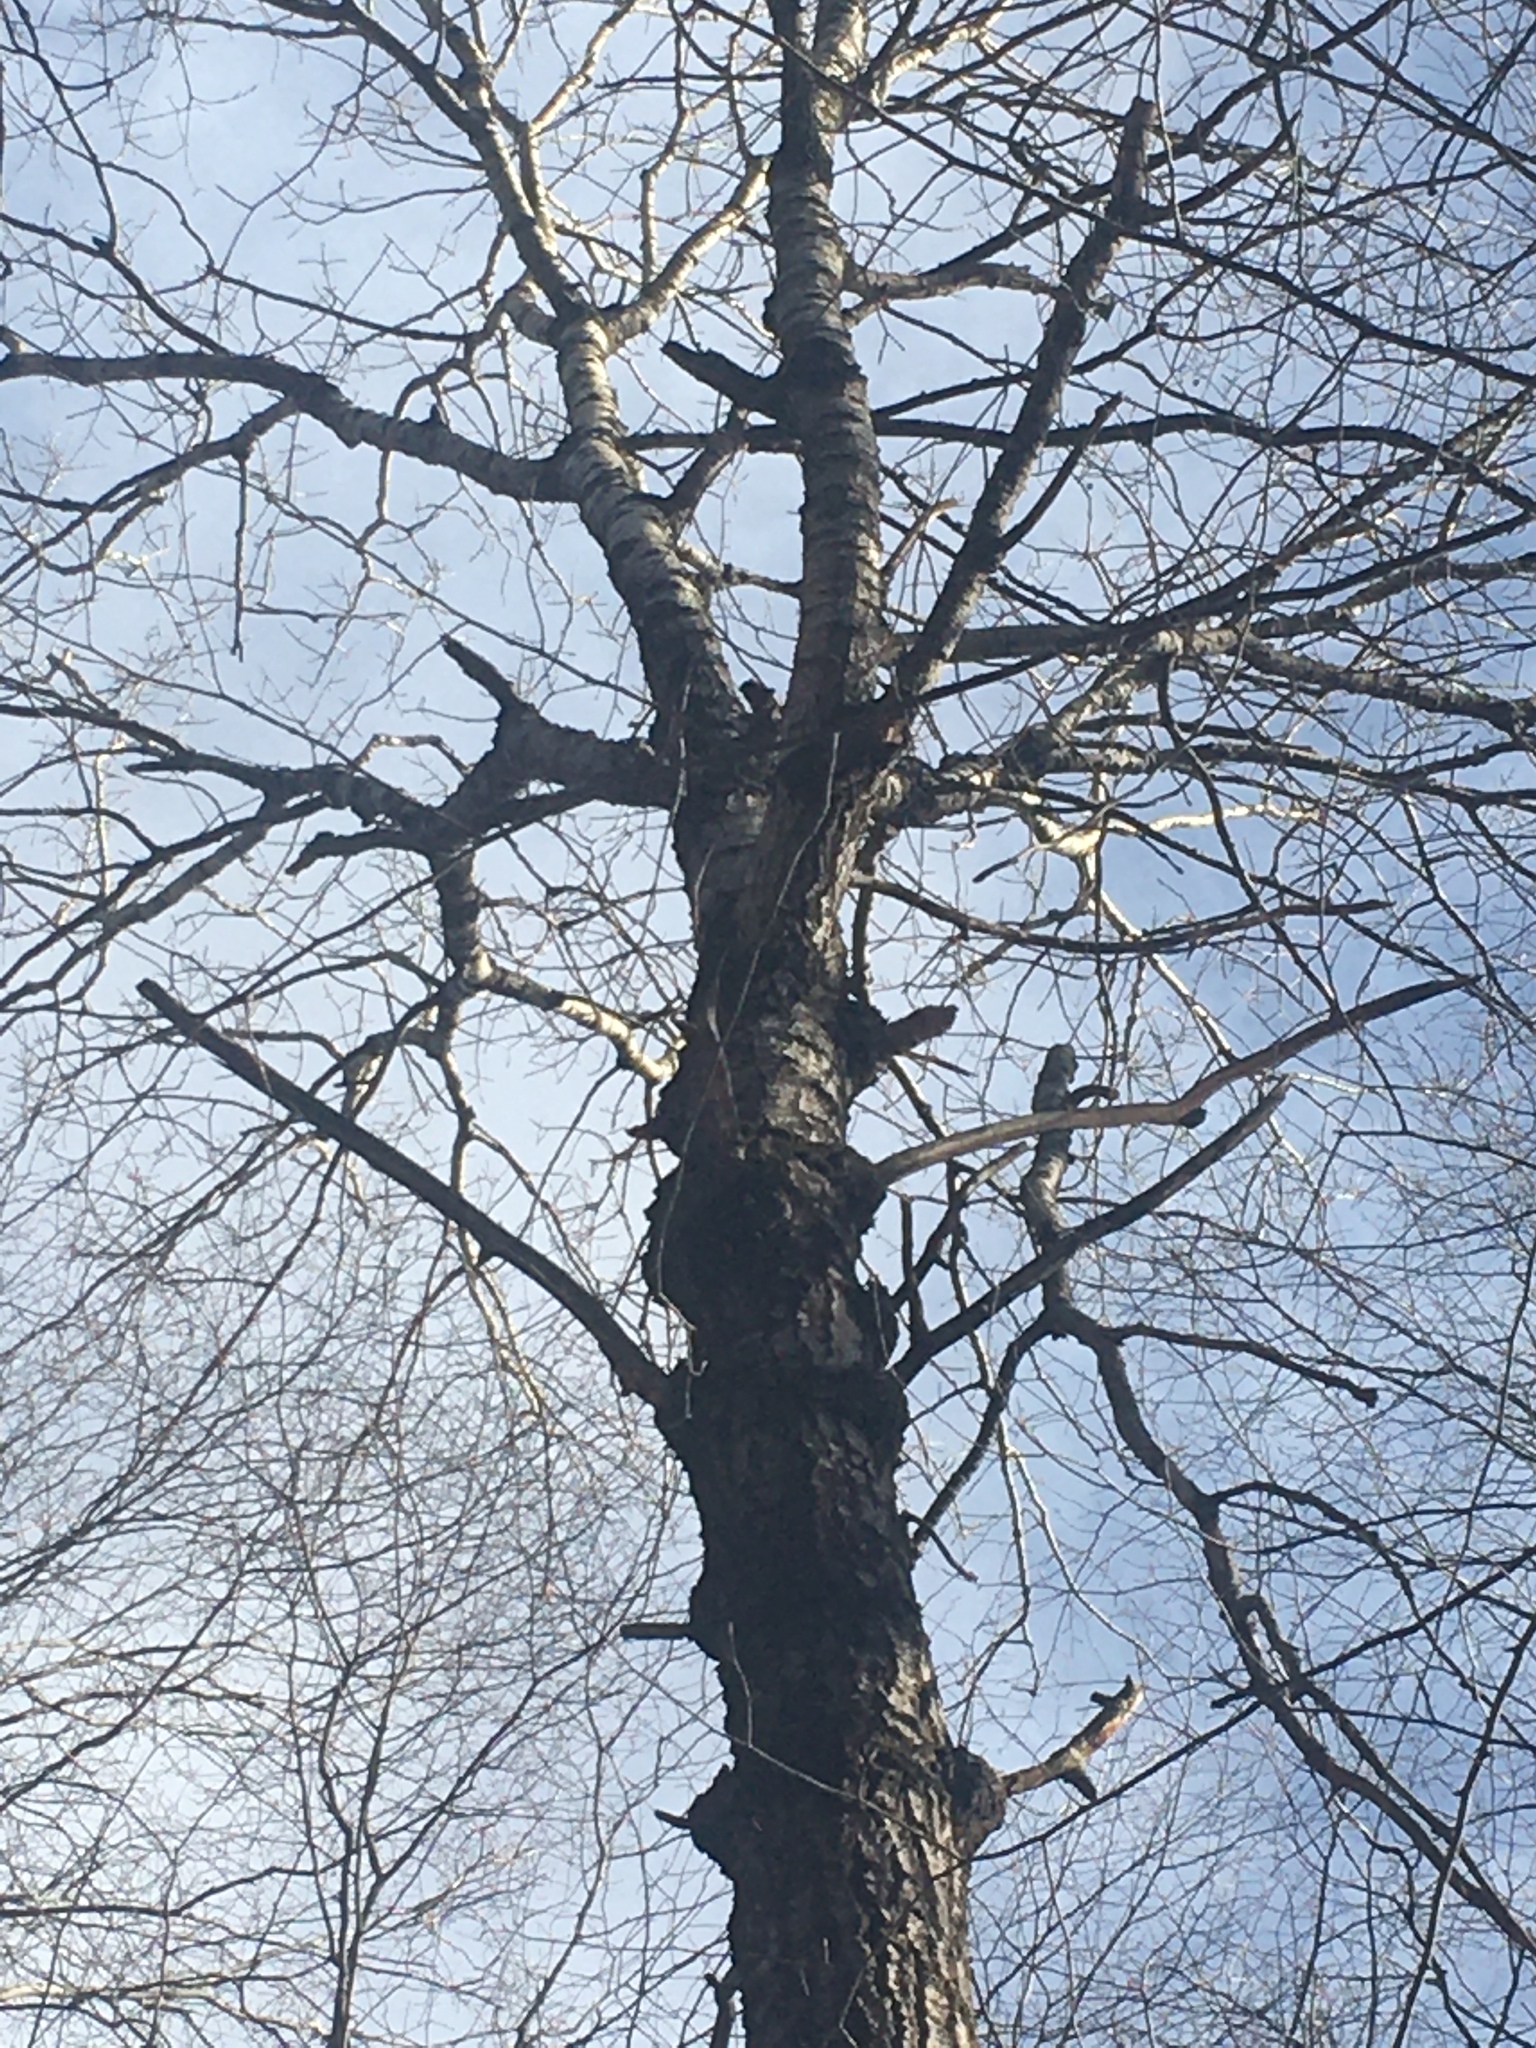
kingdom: Plantae
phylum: Tracheophyta
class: Magnoliopsida
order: Malpighiales
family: Salicaceae
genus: Populus
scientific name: Populus grandidentata
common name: Bigtooth aspen
